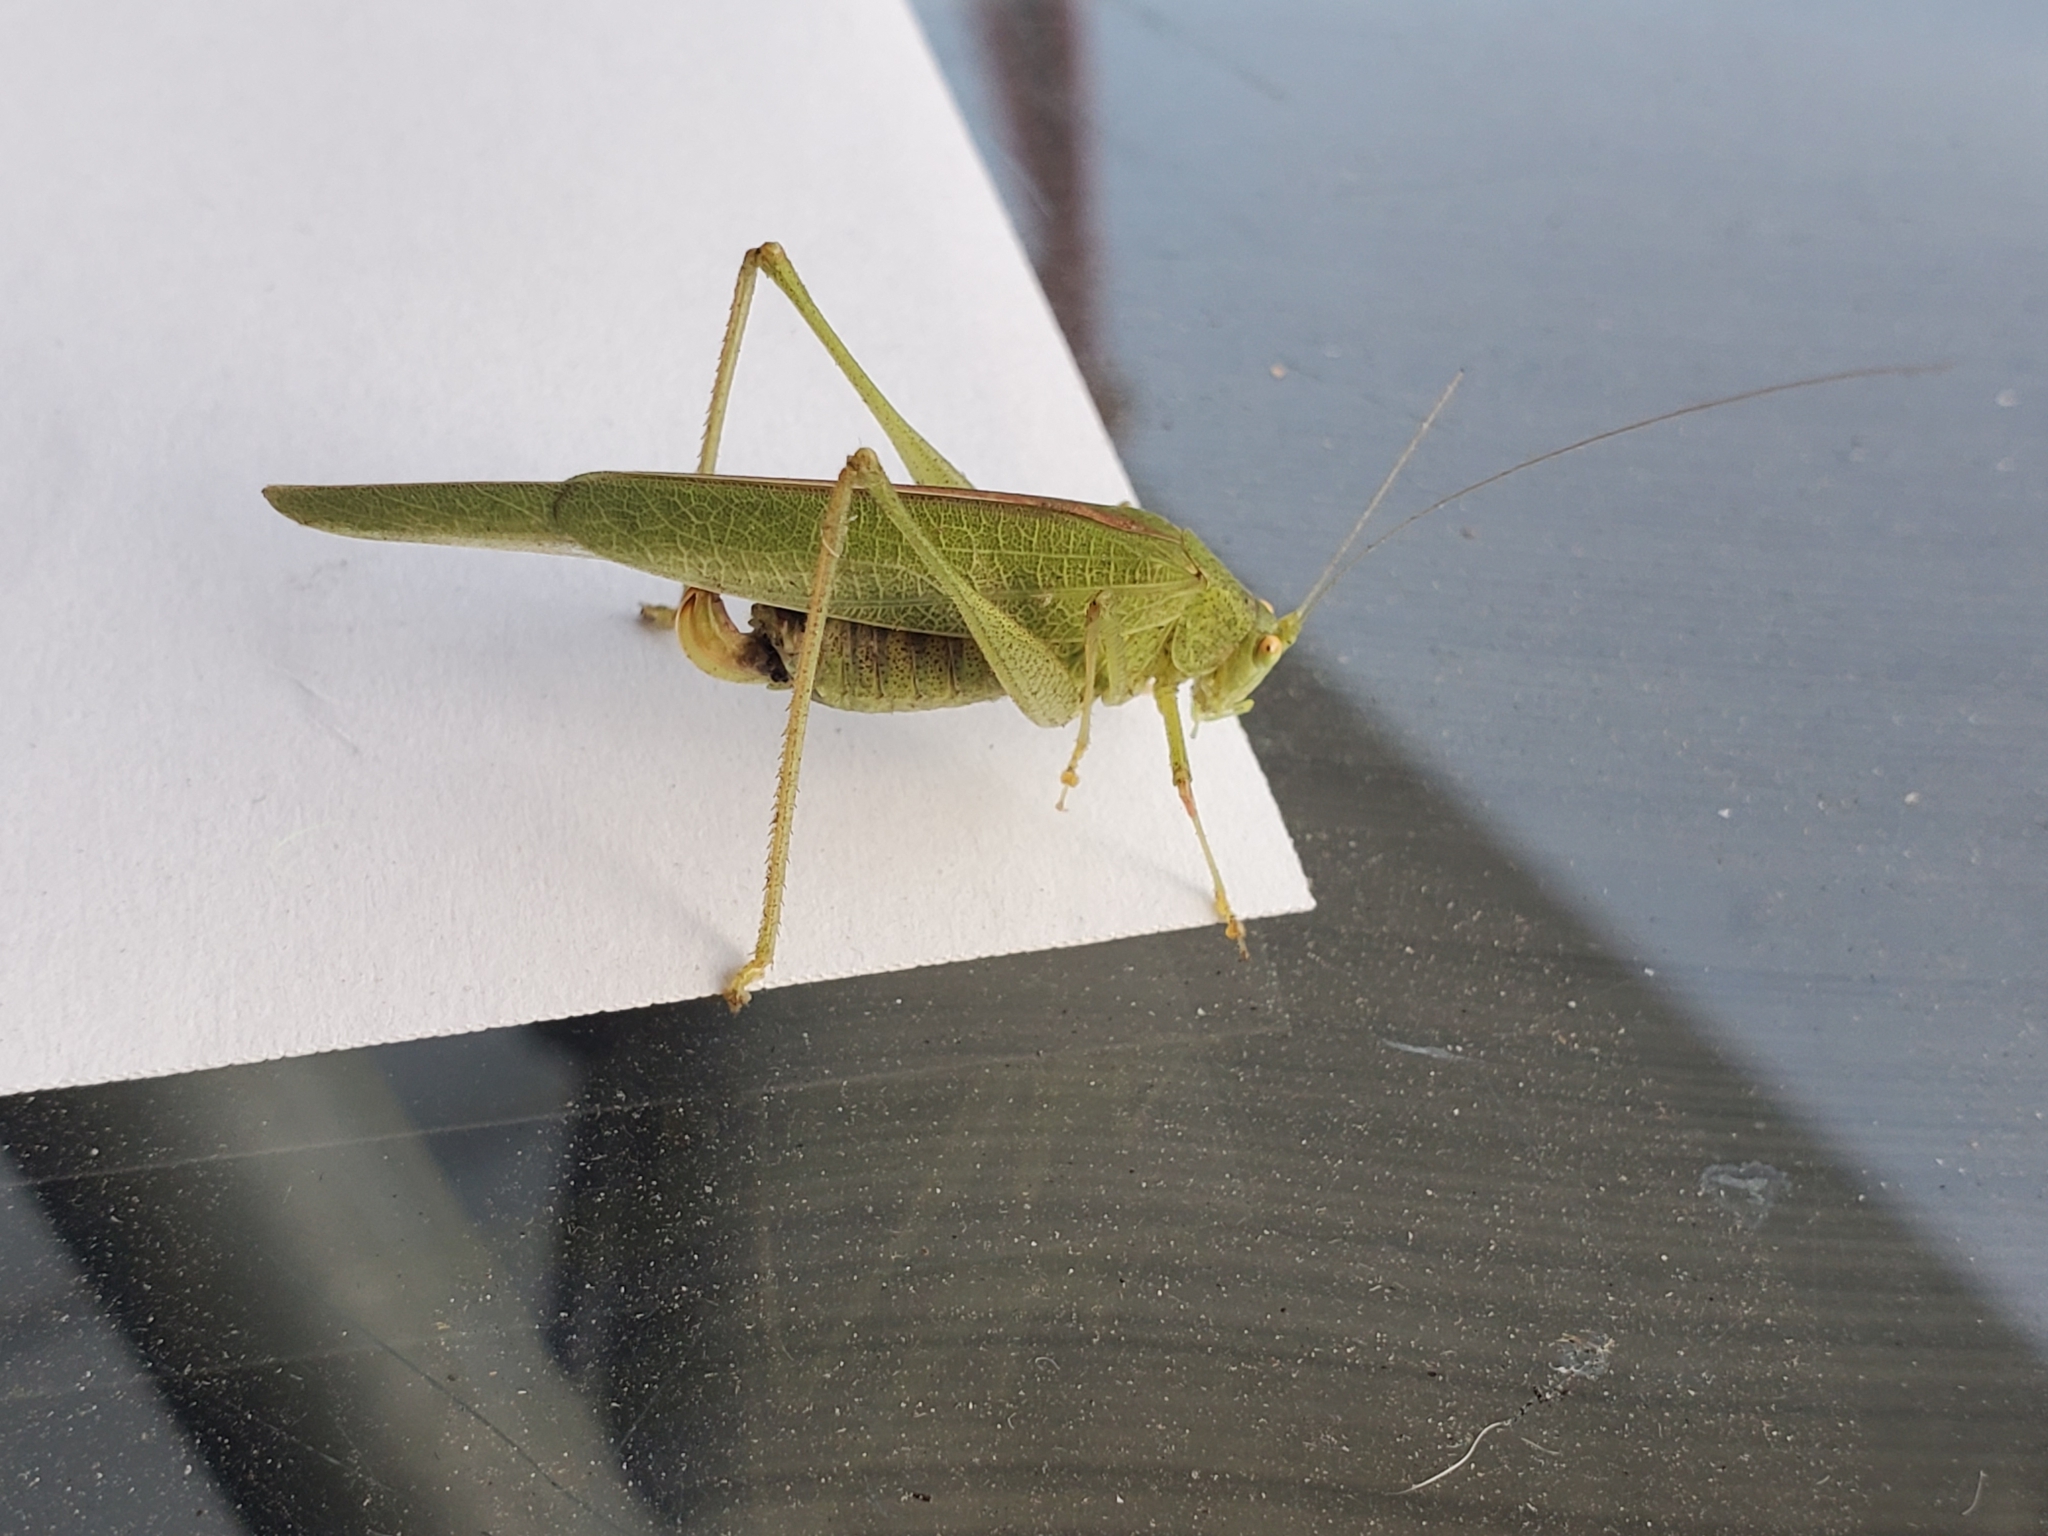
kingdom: Animalia
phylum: Arthropoda
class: Insecta
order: Orthoptera
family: Tettigoniidae
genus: Phaneroptera
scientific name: Phaneroptera nana
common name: Southern sickle bush-cricket
